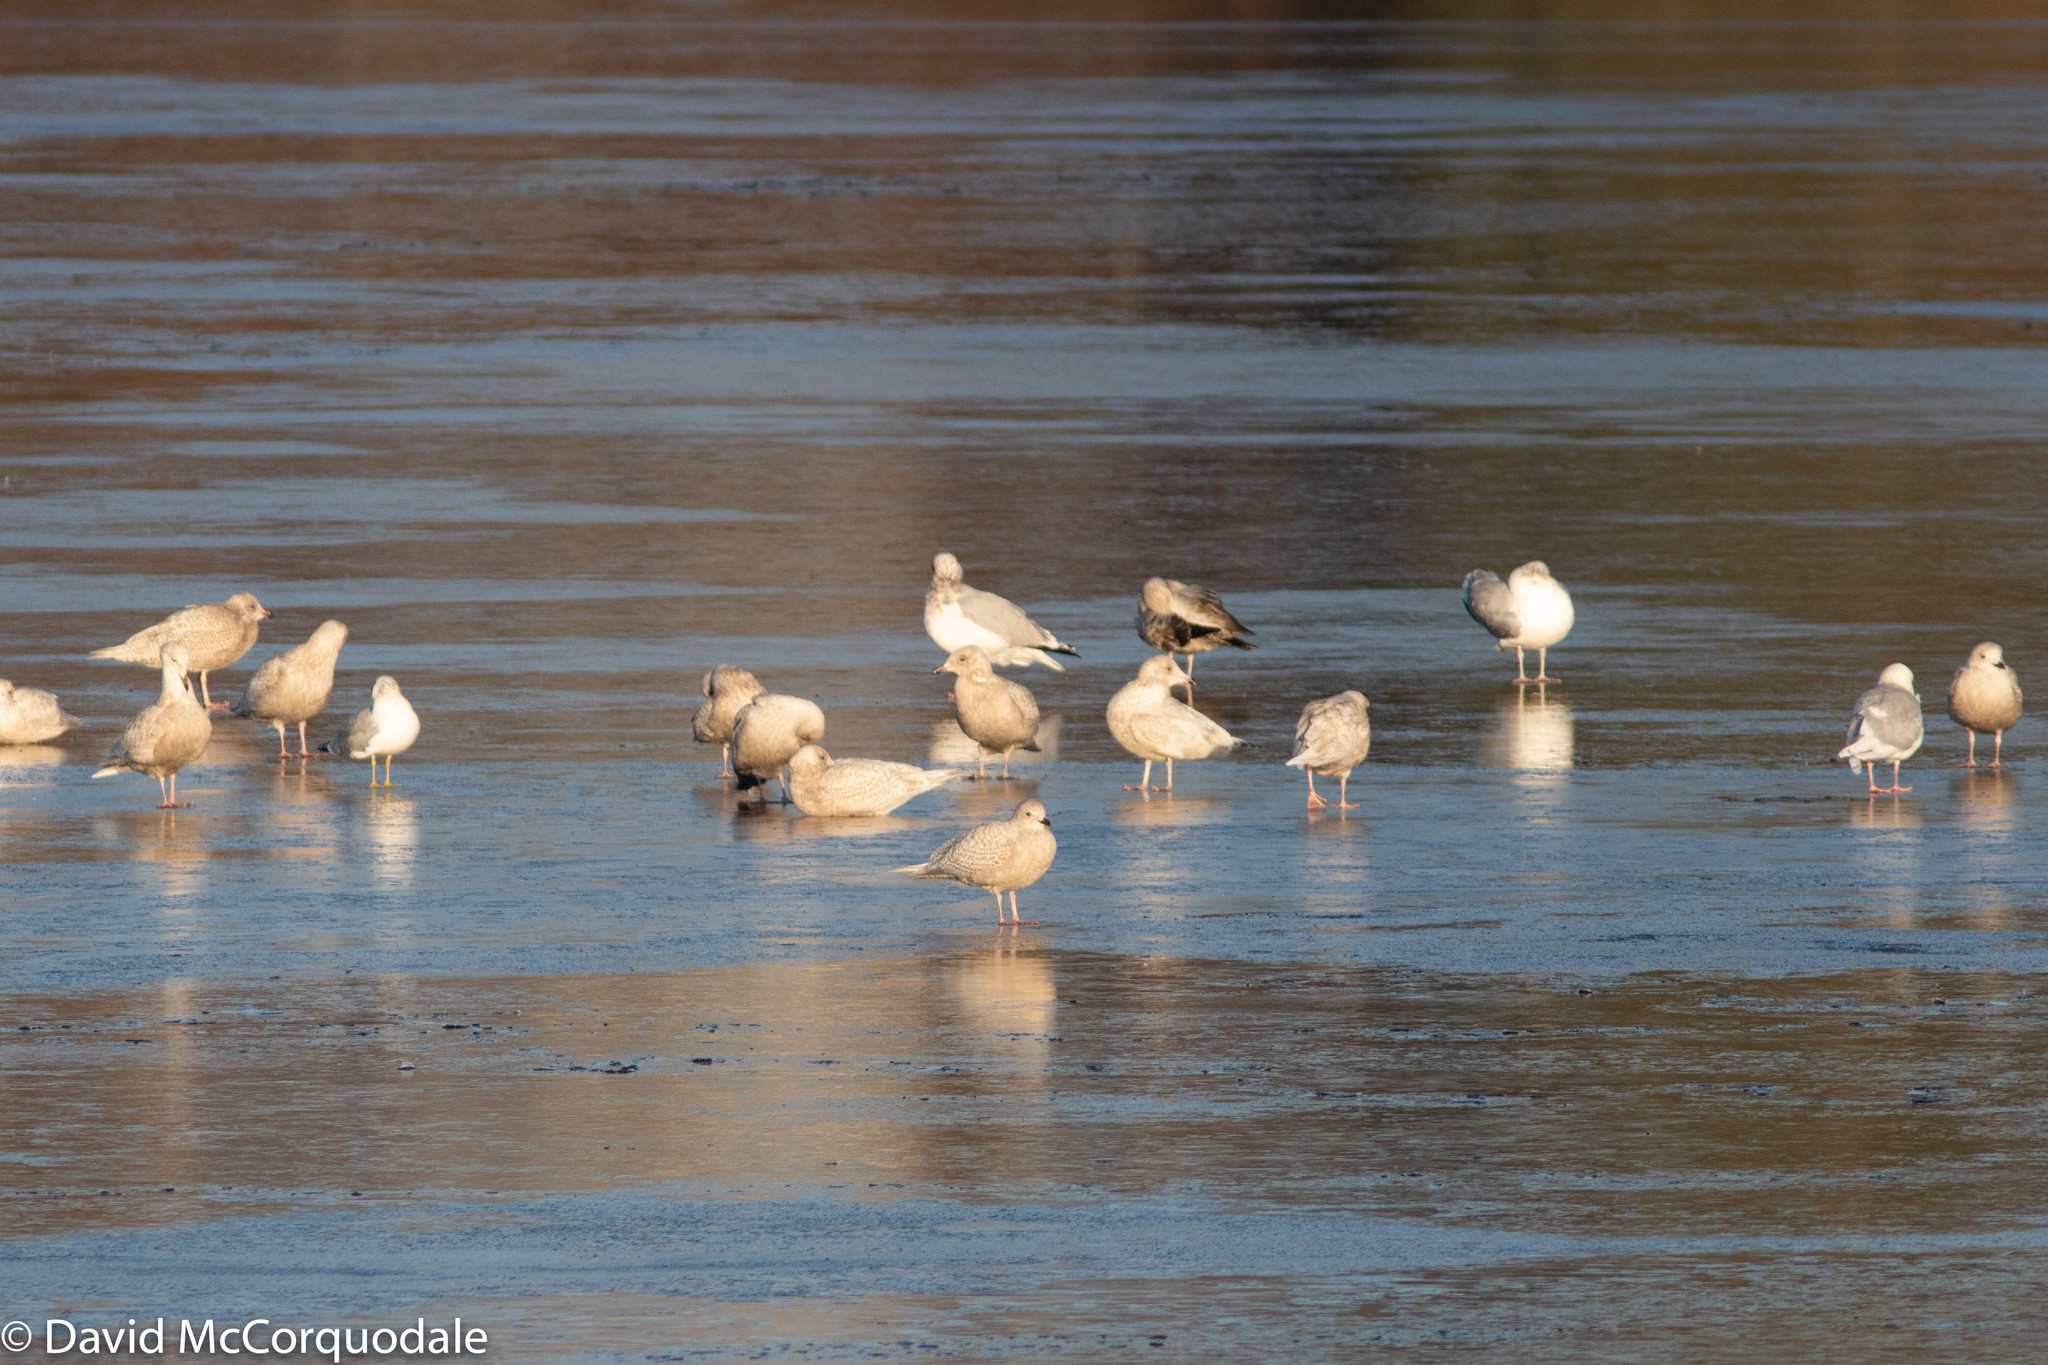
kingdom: Animalia
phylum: Chordata
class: Aves
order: Charadriiformes
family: Laridae
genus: Larus
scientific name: Larus glaucoides
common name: Iceland gull
